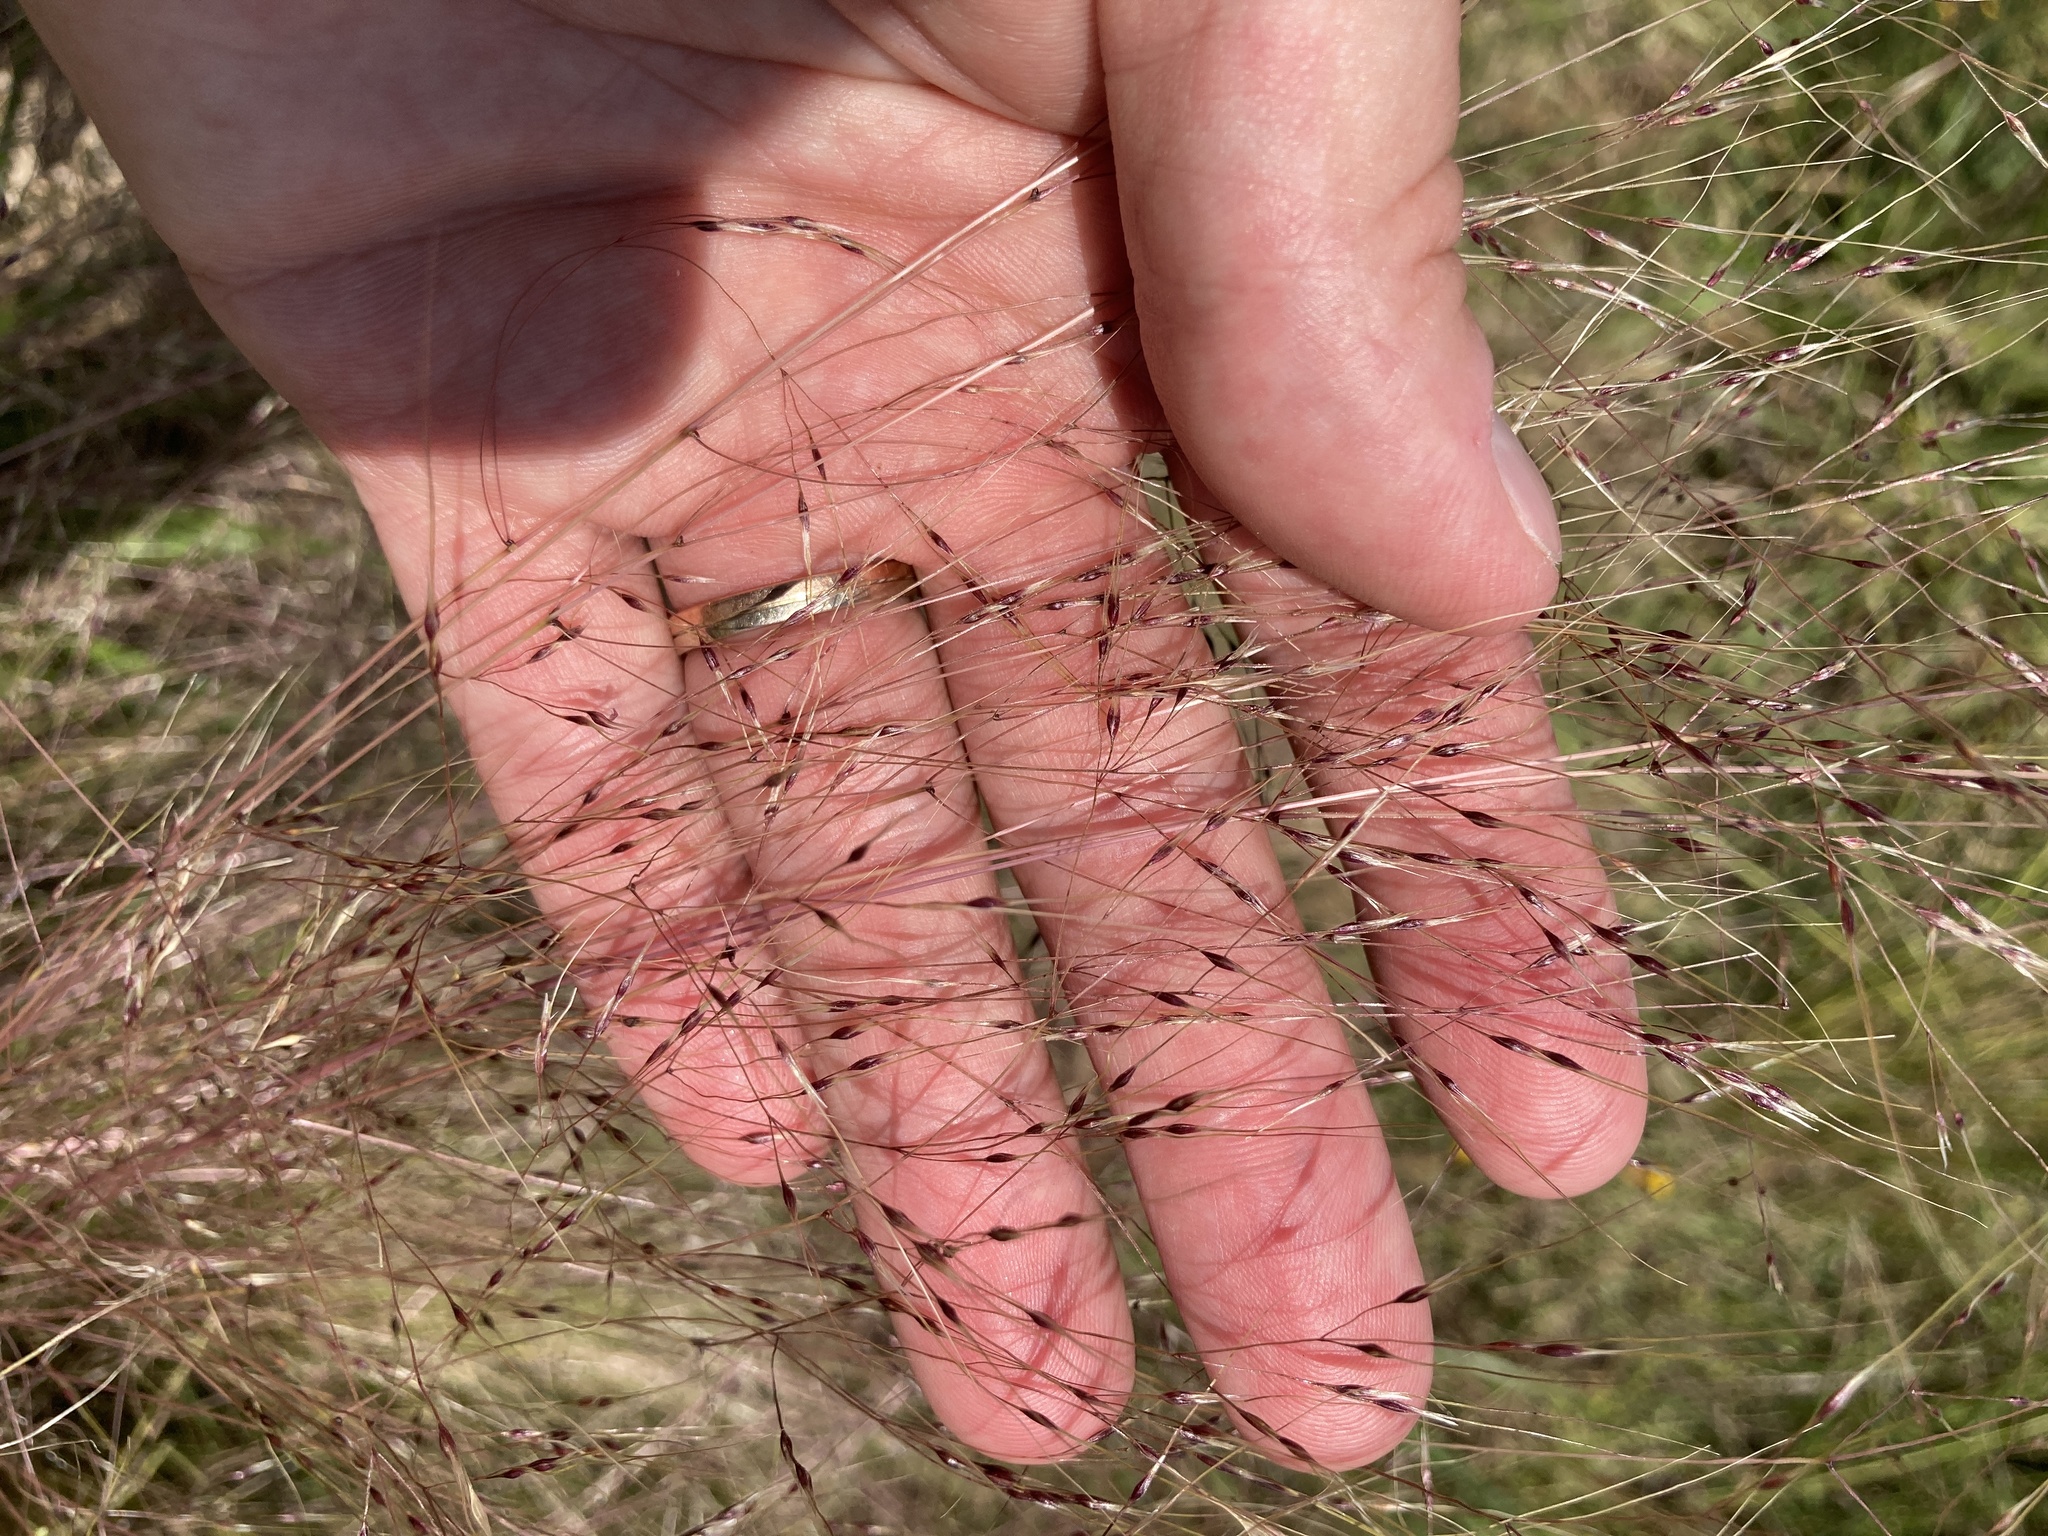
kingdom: Plantae
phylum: Tracheophyta
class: Liliopsida
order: Poales
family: Poaceae
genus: Nassella
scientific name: Nassella trichotoma
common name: Serrated tussock grass
